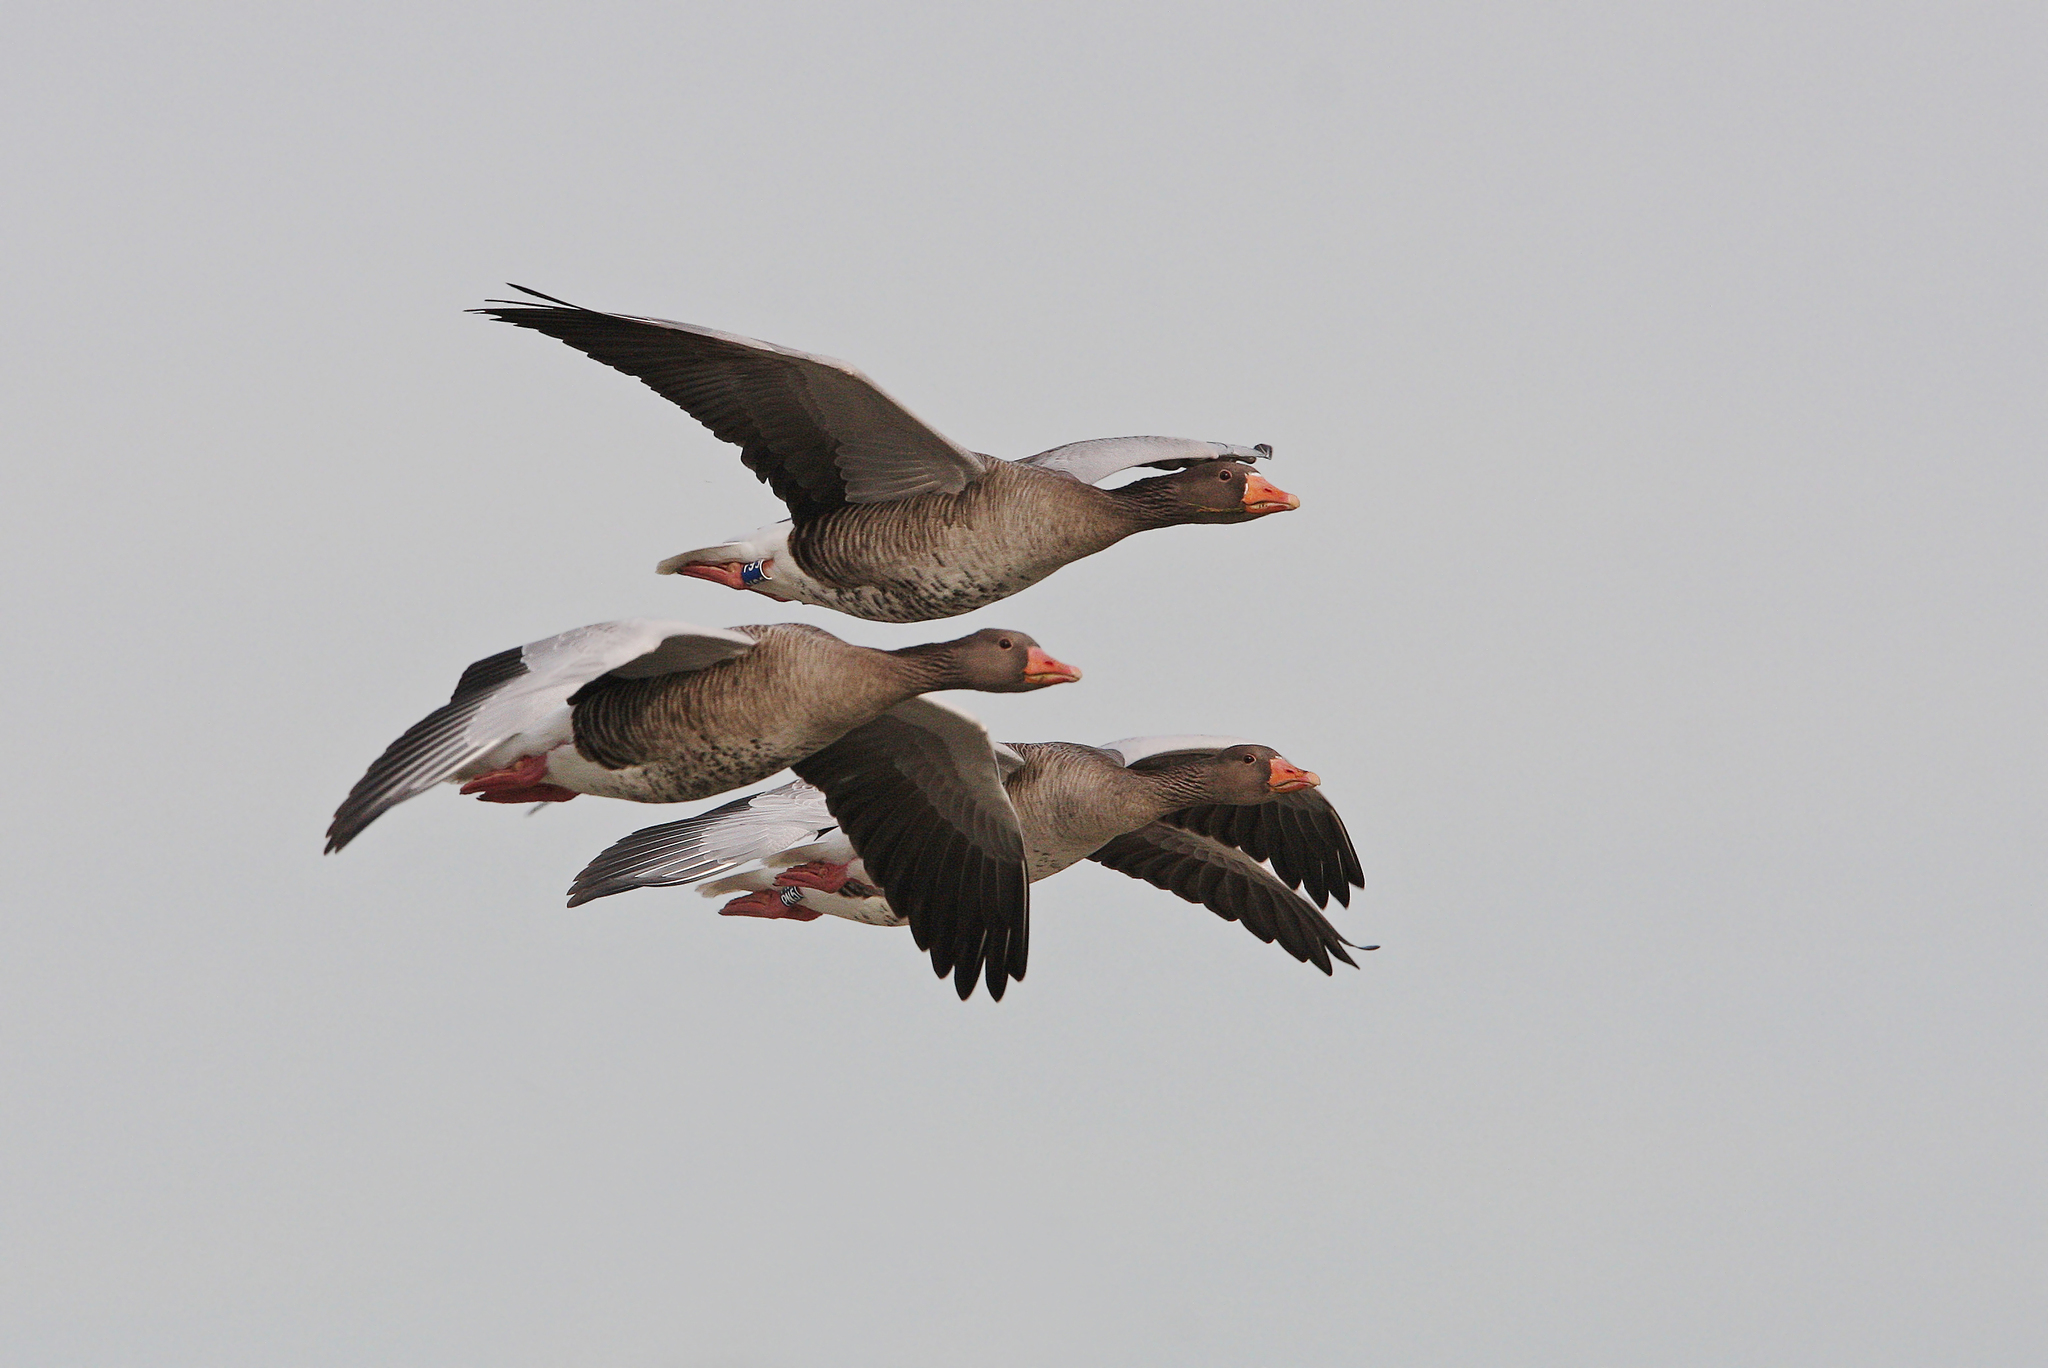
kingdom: Animalia
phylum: Chordata
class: Aves
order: Anseriformes
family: Anatidae
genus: Anser
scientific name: Anser anser
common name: Greylag goose
